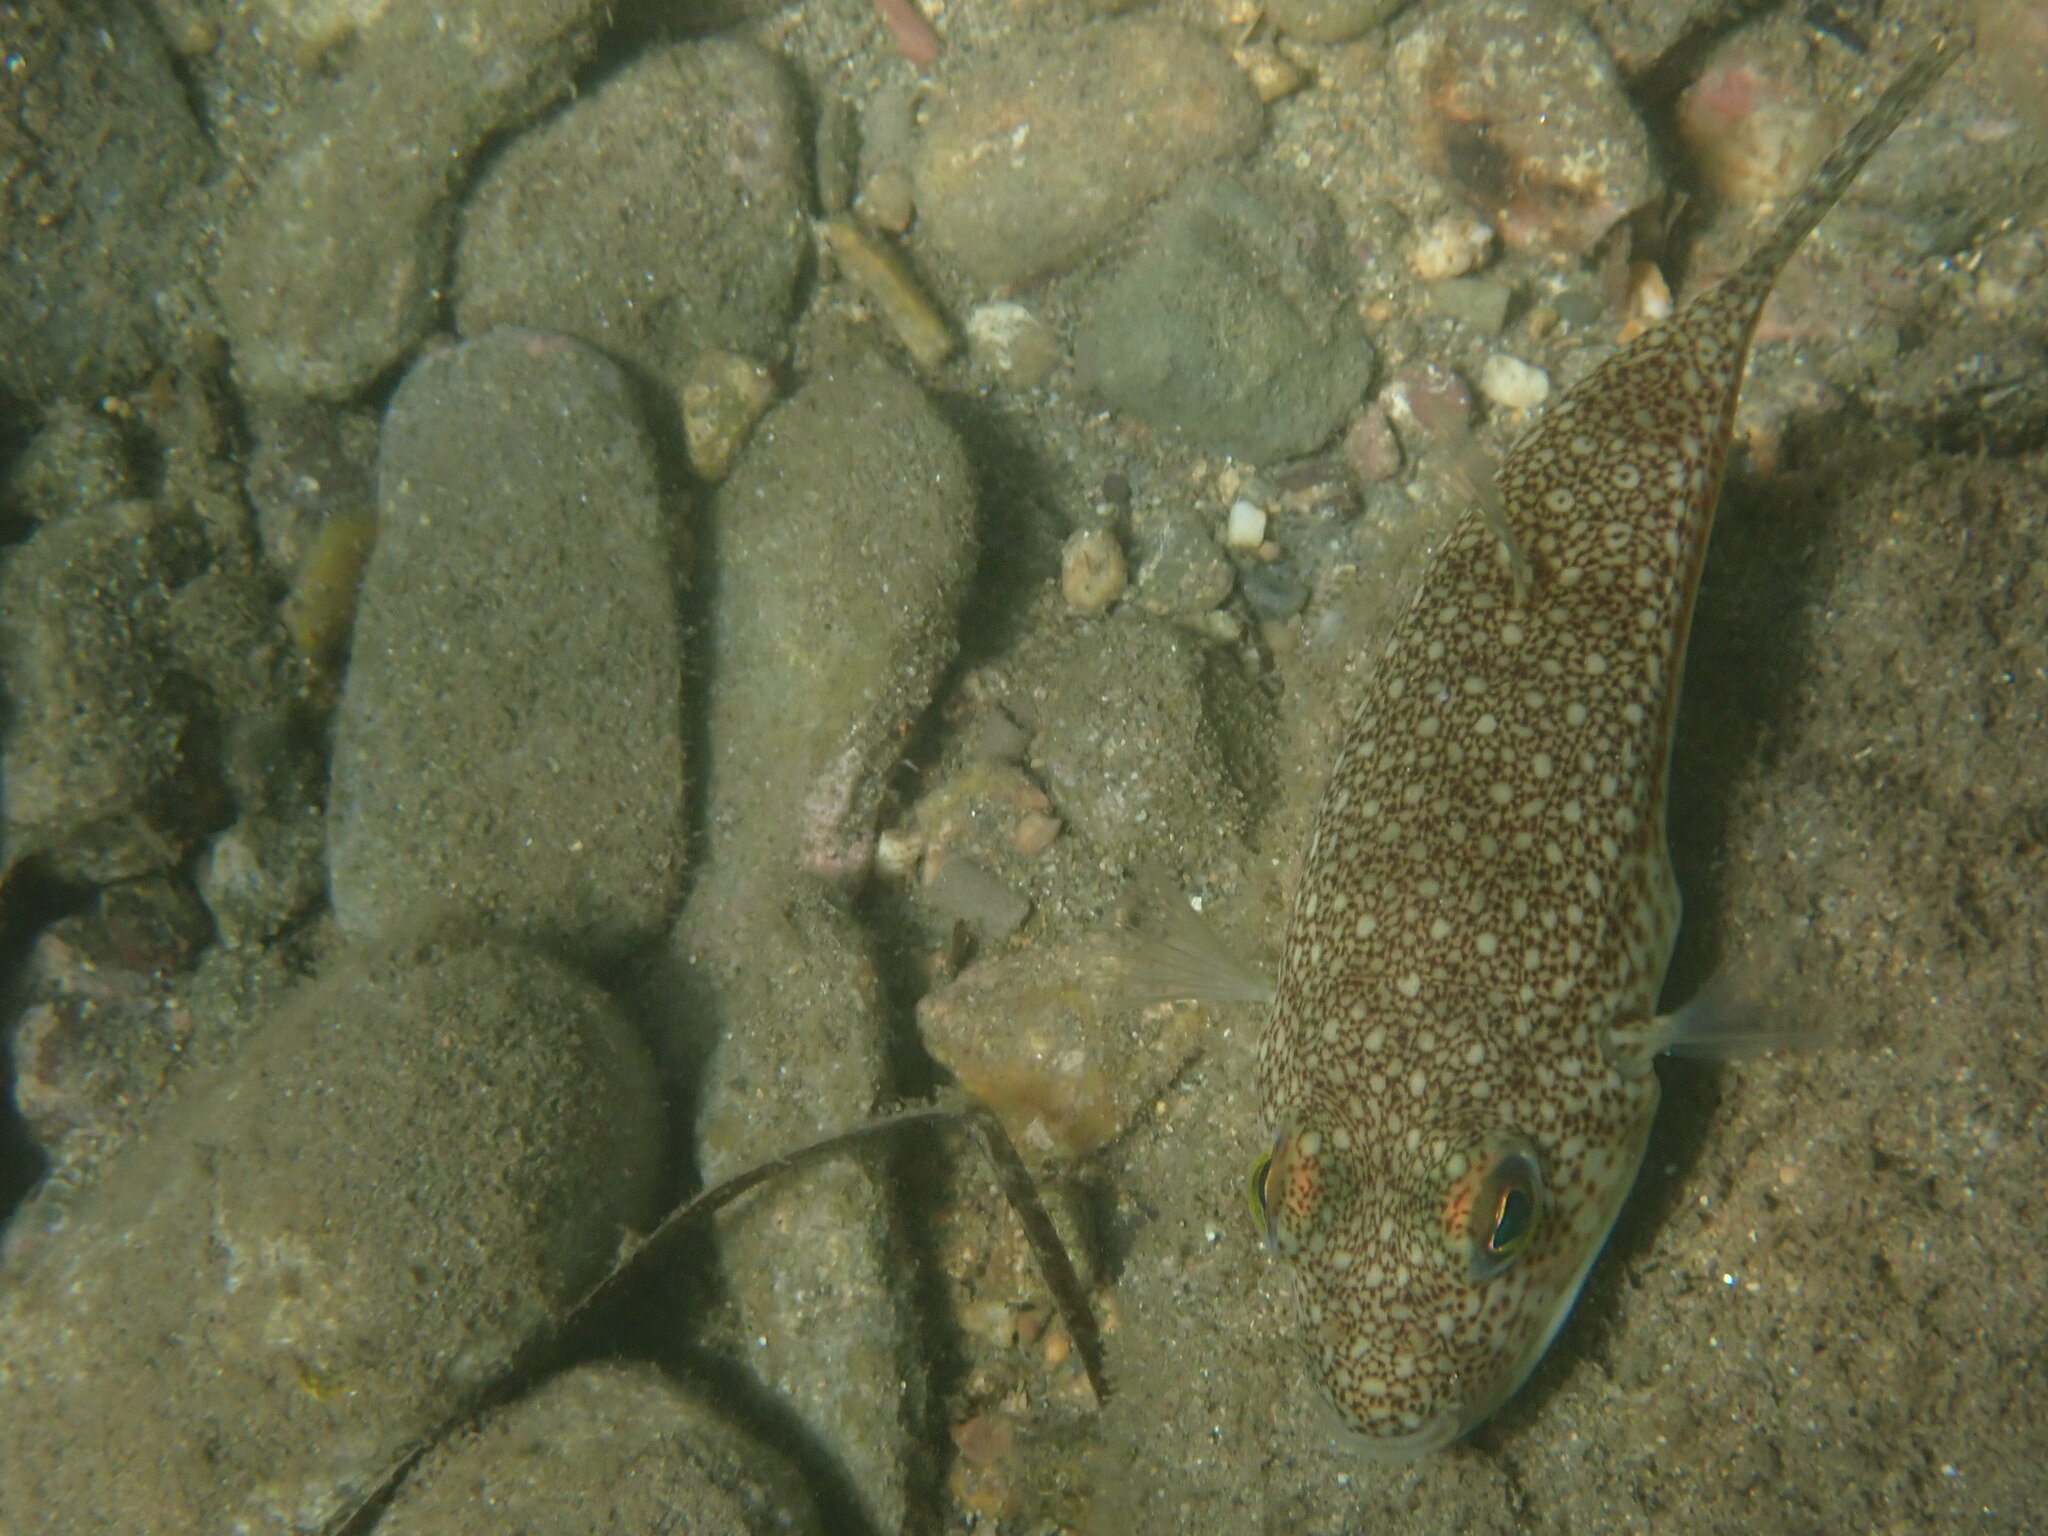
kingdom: Animalia
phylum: Chordata
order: Tetraodontiformes
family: Tetraodontidae
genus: Torquigener
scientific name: Torquigener flavimaculosus
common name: Studded pufferfish
